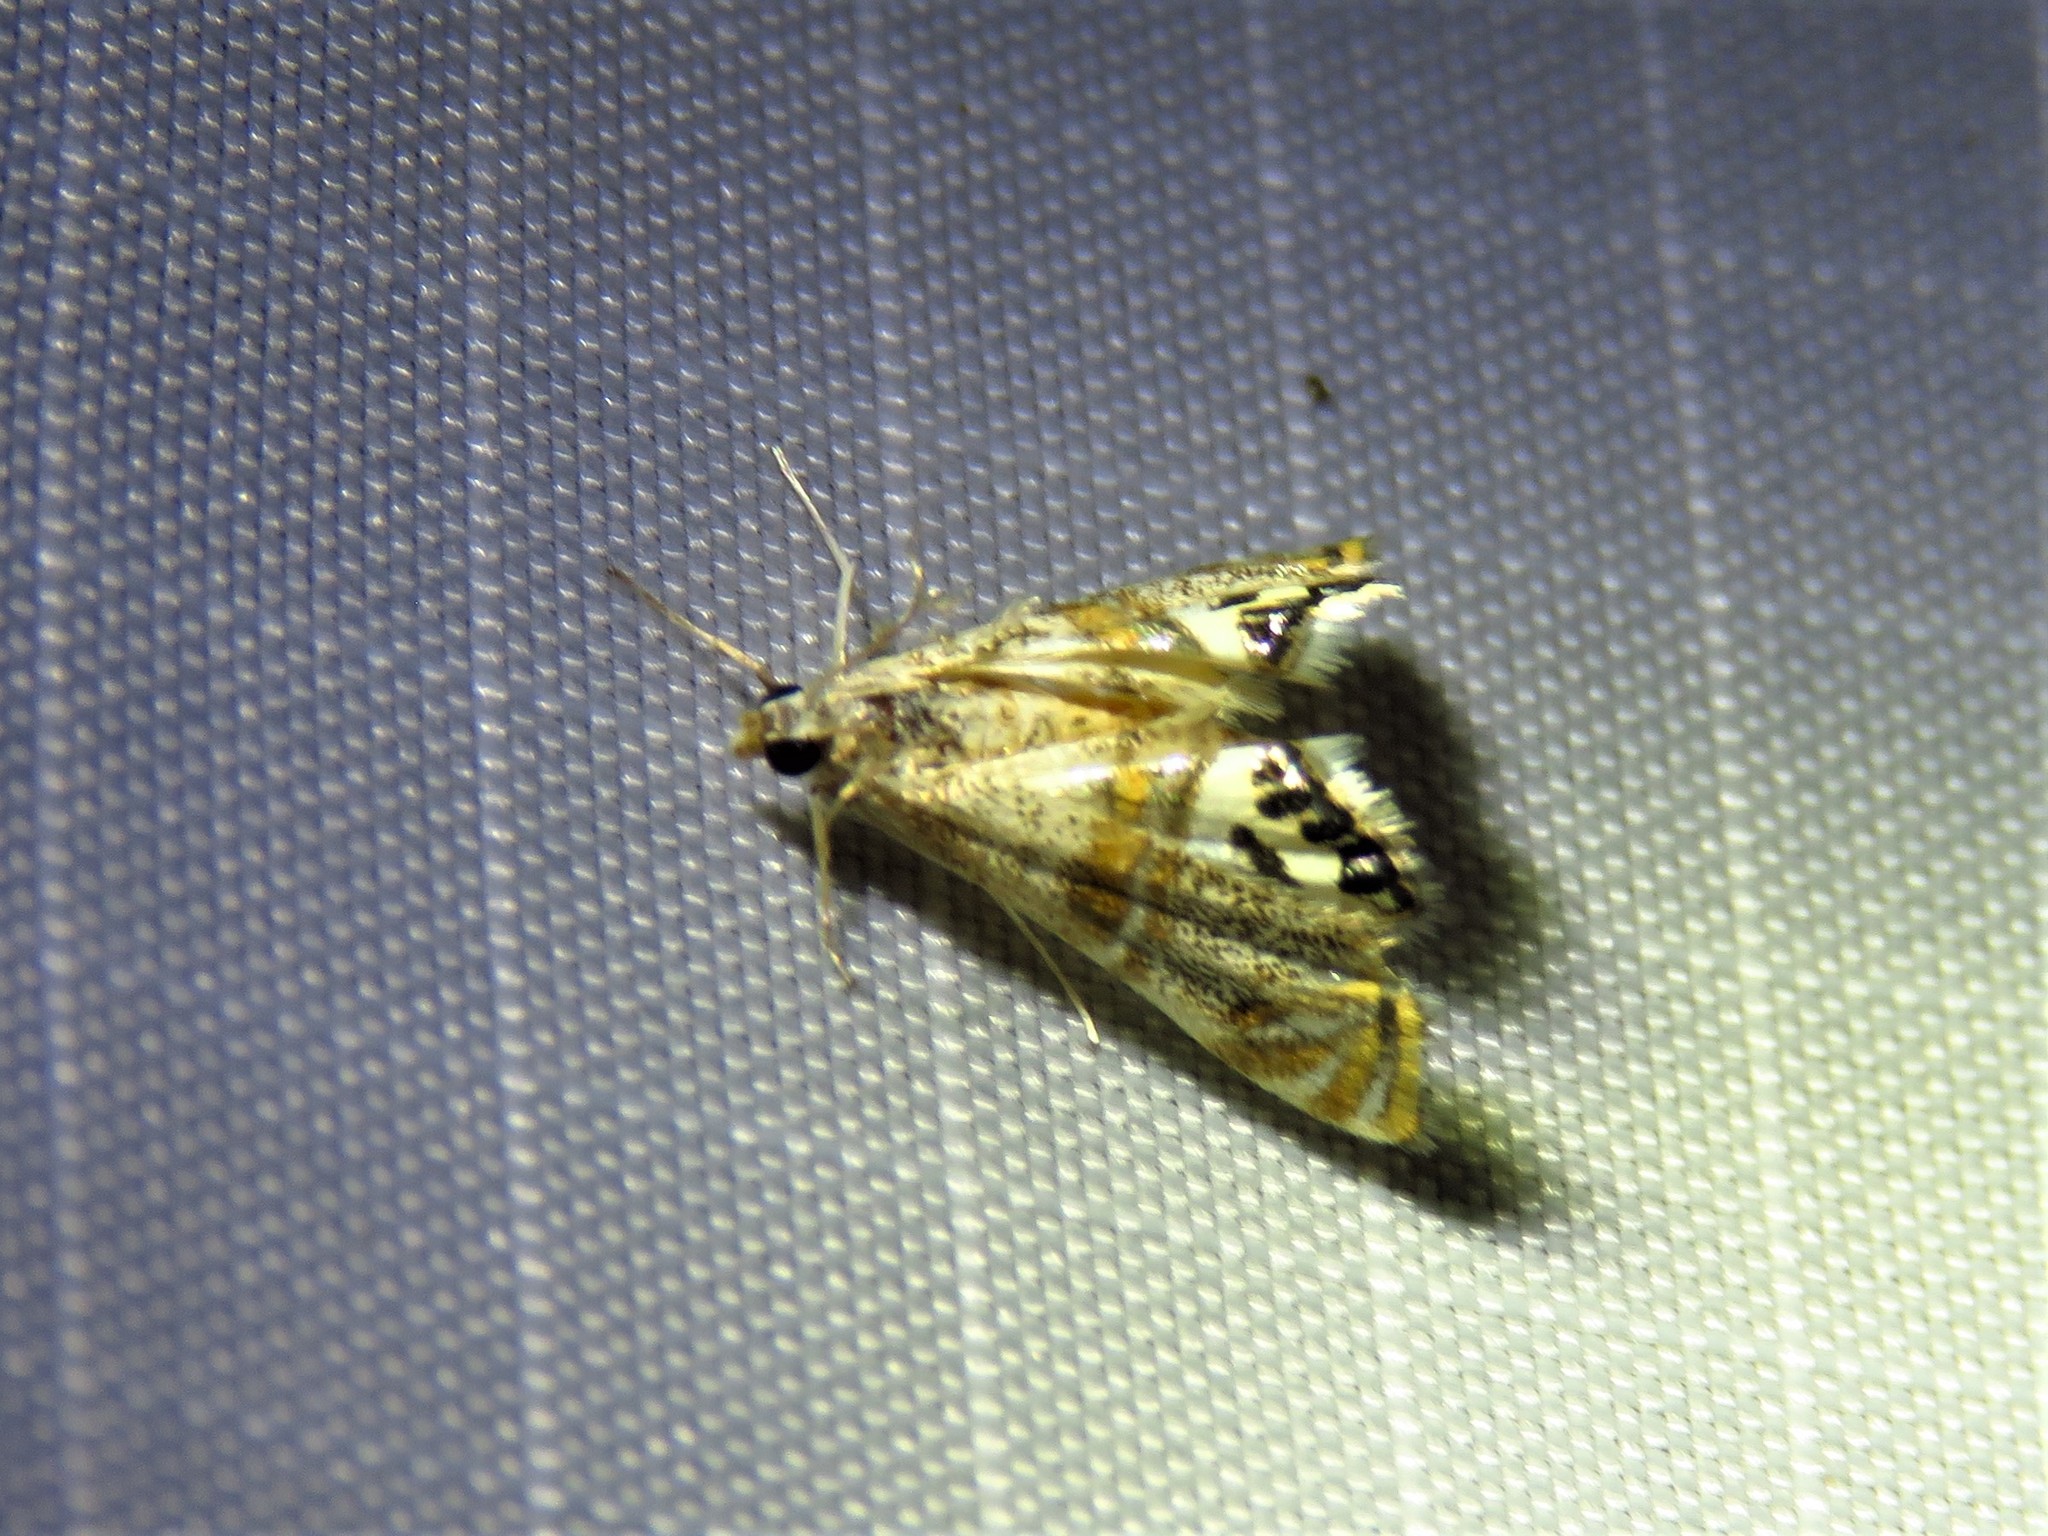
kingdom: Animalia
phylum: Arthropoda
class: Insecta
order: Lepidoptera
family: Crambidae
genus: Petrophila
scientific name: Petrophila bifascialis
